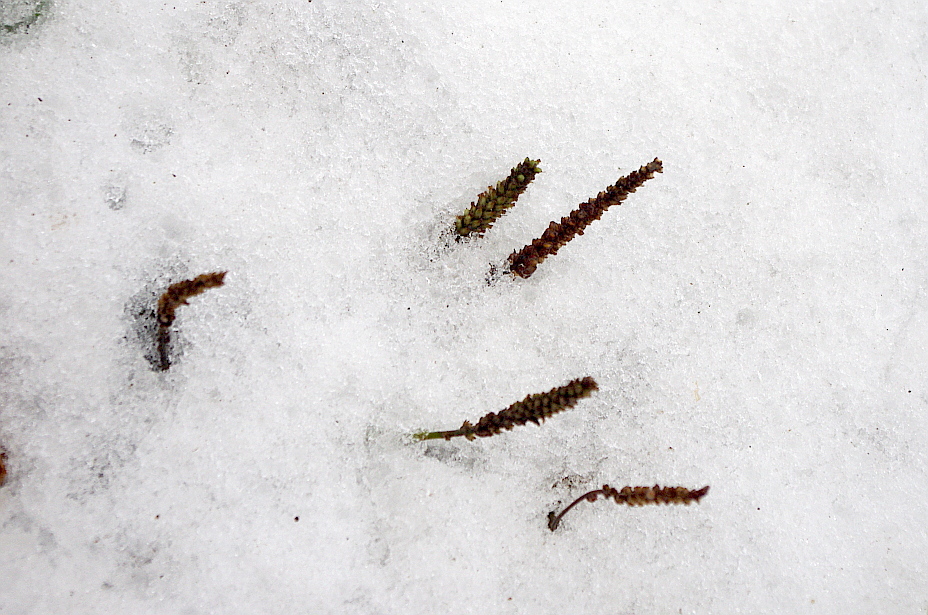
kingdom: Plantae
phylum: Tracheophyta
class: Magnoliopsida
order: Lamiales
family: Plantaginaceae
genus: Plantago
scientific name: Plantago major
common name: Common plantain
